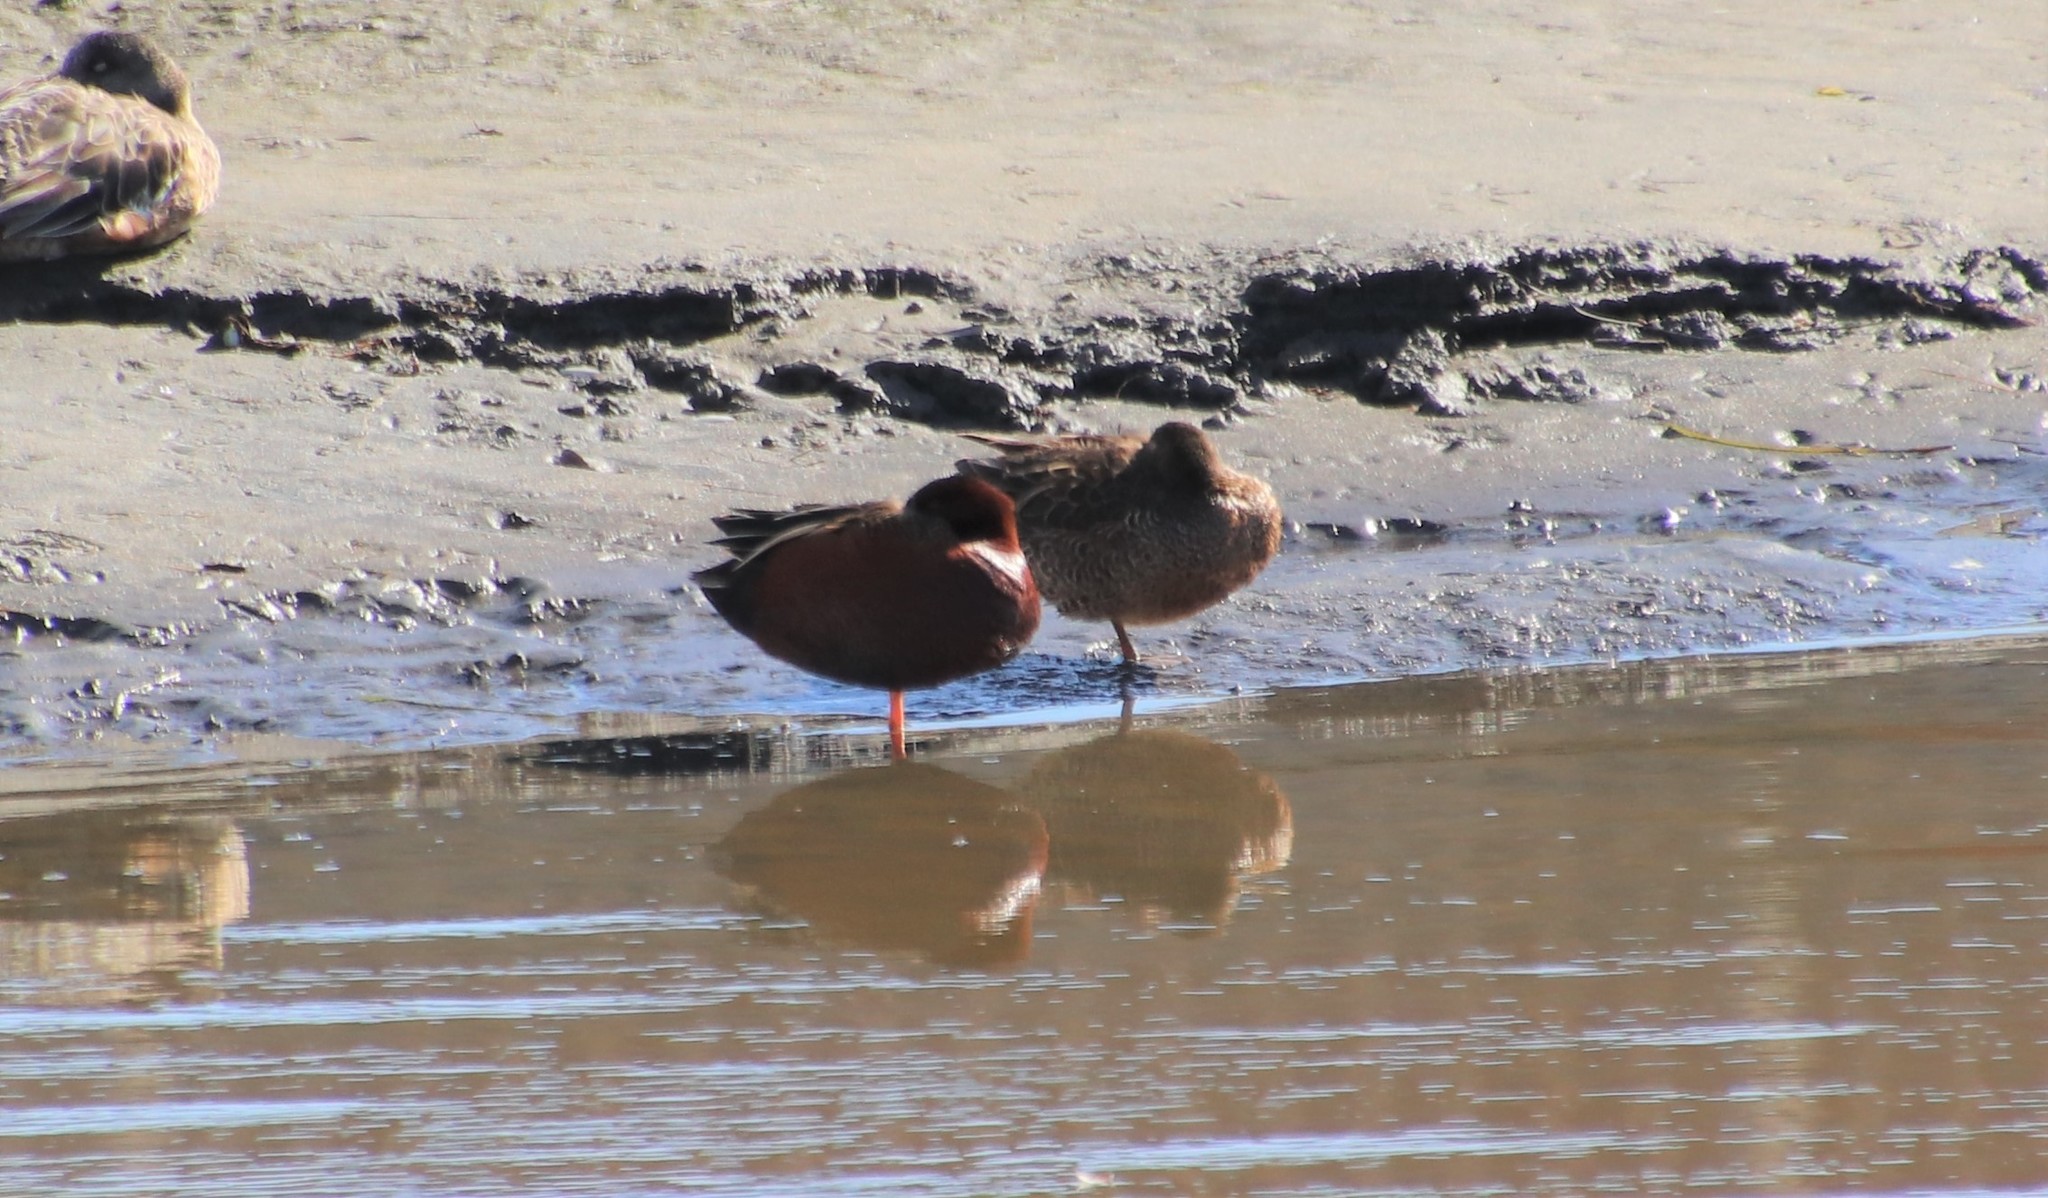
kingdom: Animalia
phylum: Chordata
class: Aves
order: Anseriformes
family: Anatidae
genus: Spatula
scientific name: Spatula cyanoptera
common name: Cinnamon teal
